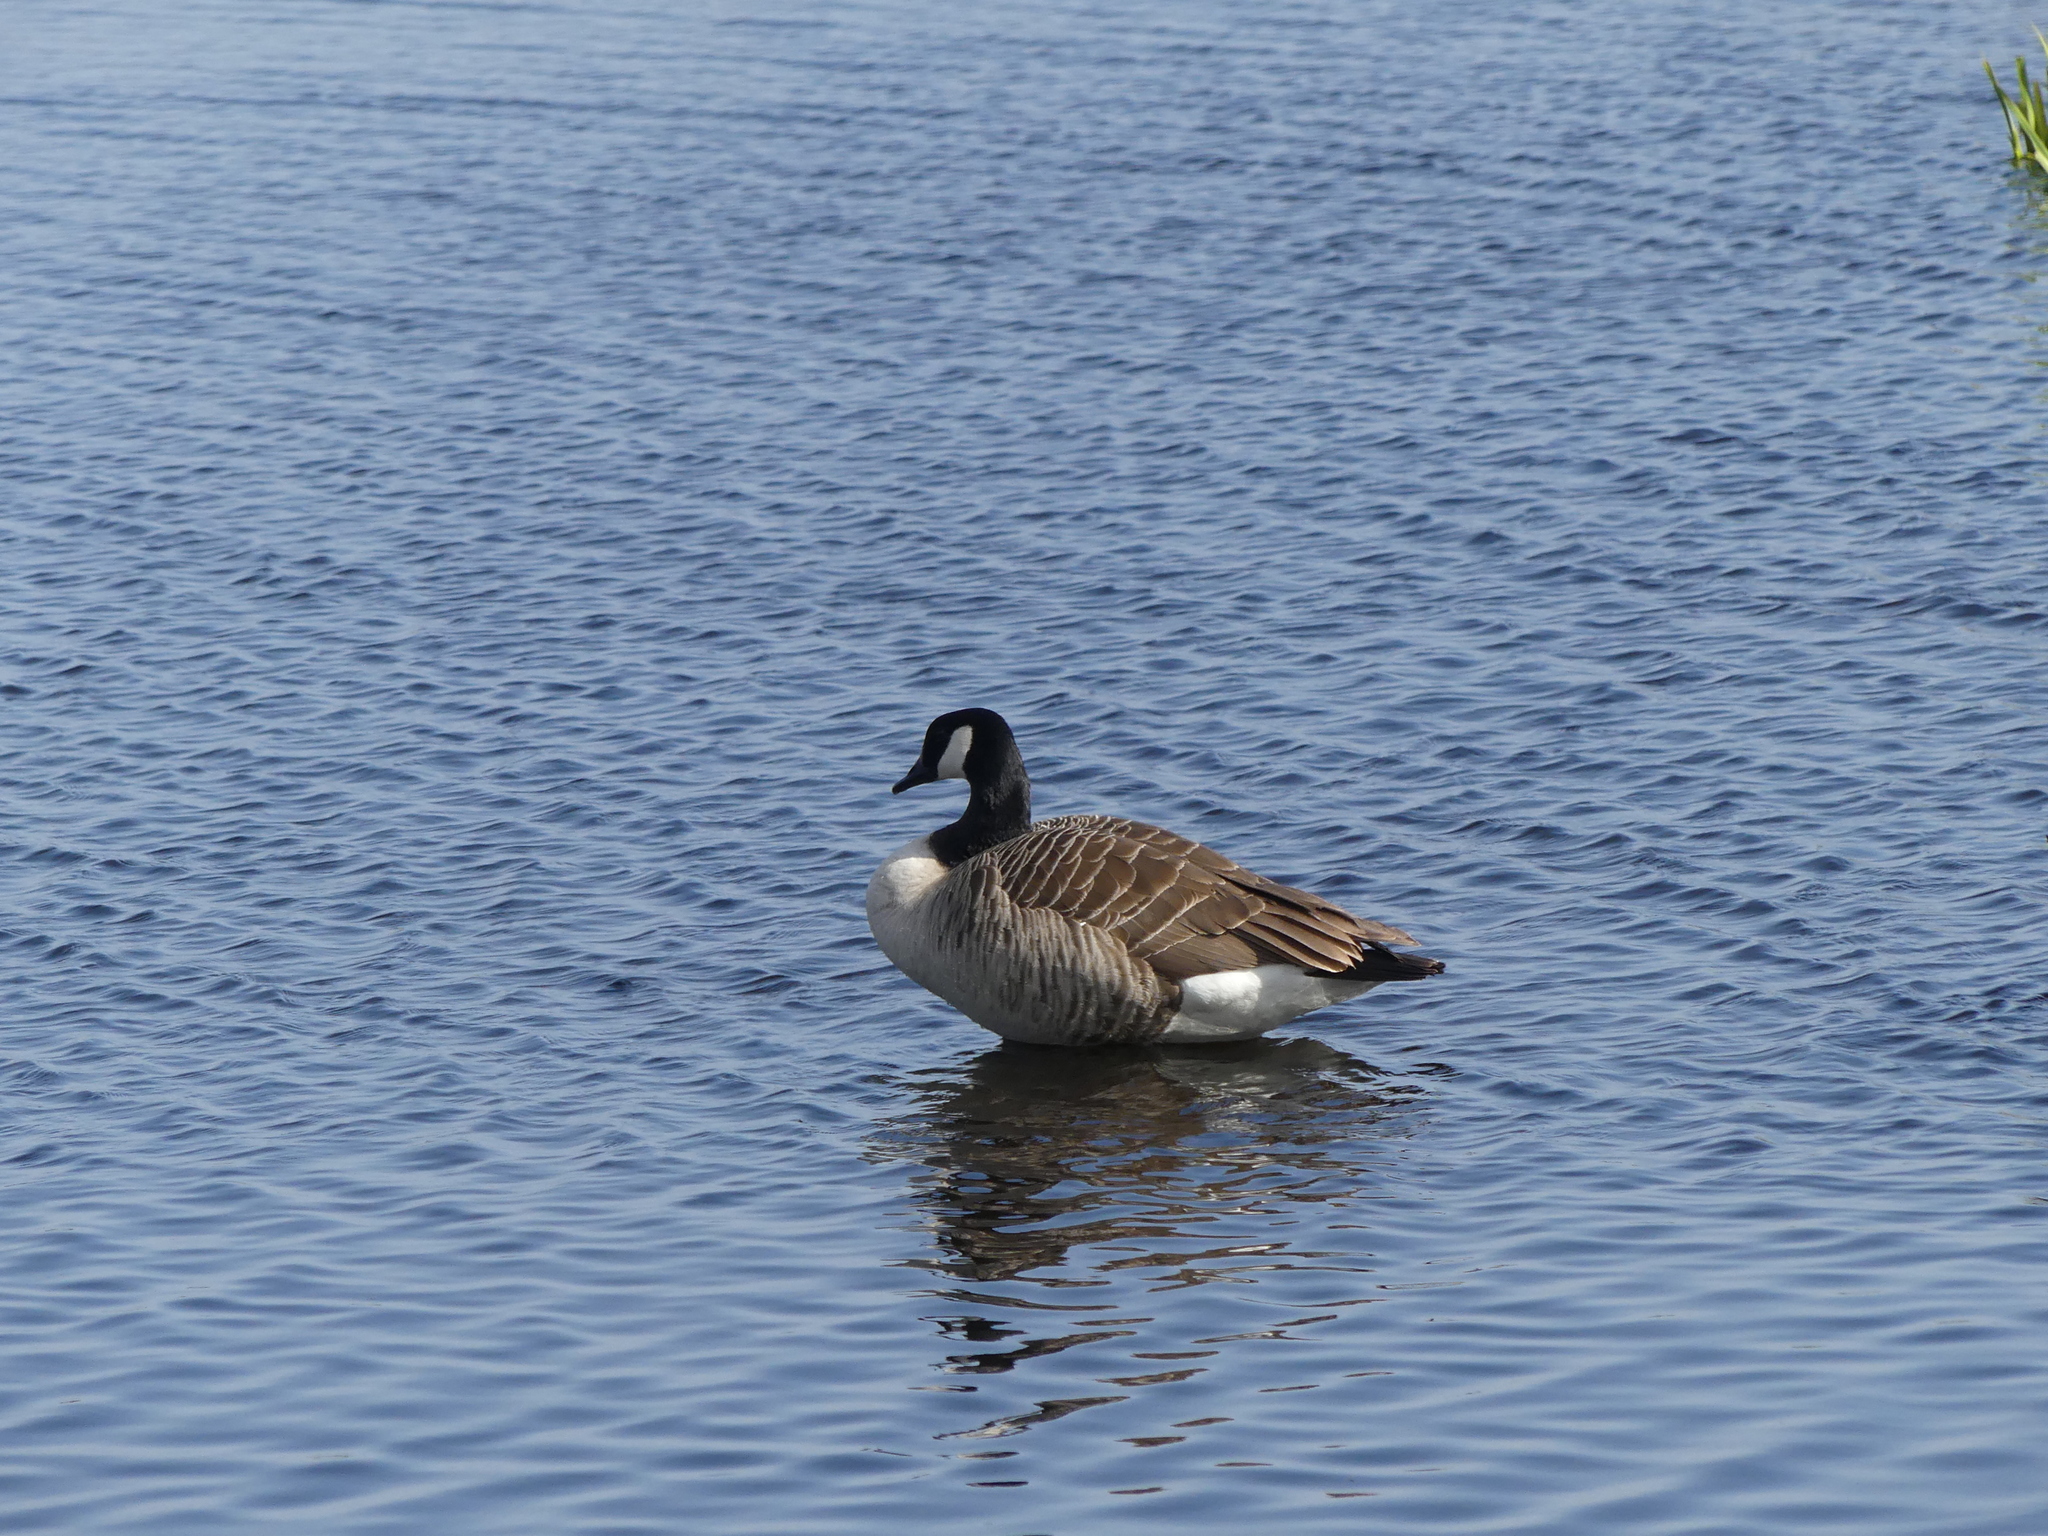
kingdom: Animalia
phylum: Chordata
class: Aves
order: Anseriformes
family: Anatidae
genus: Branta
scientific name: Branta canadensis
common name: Canada goose
